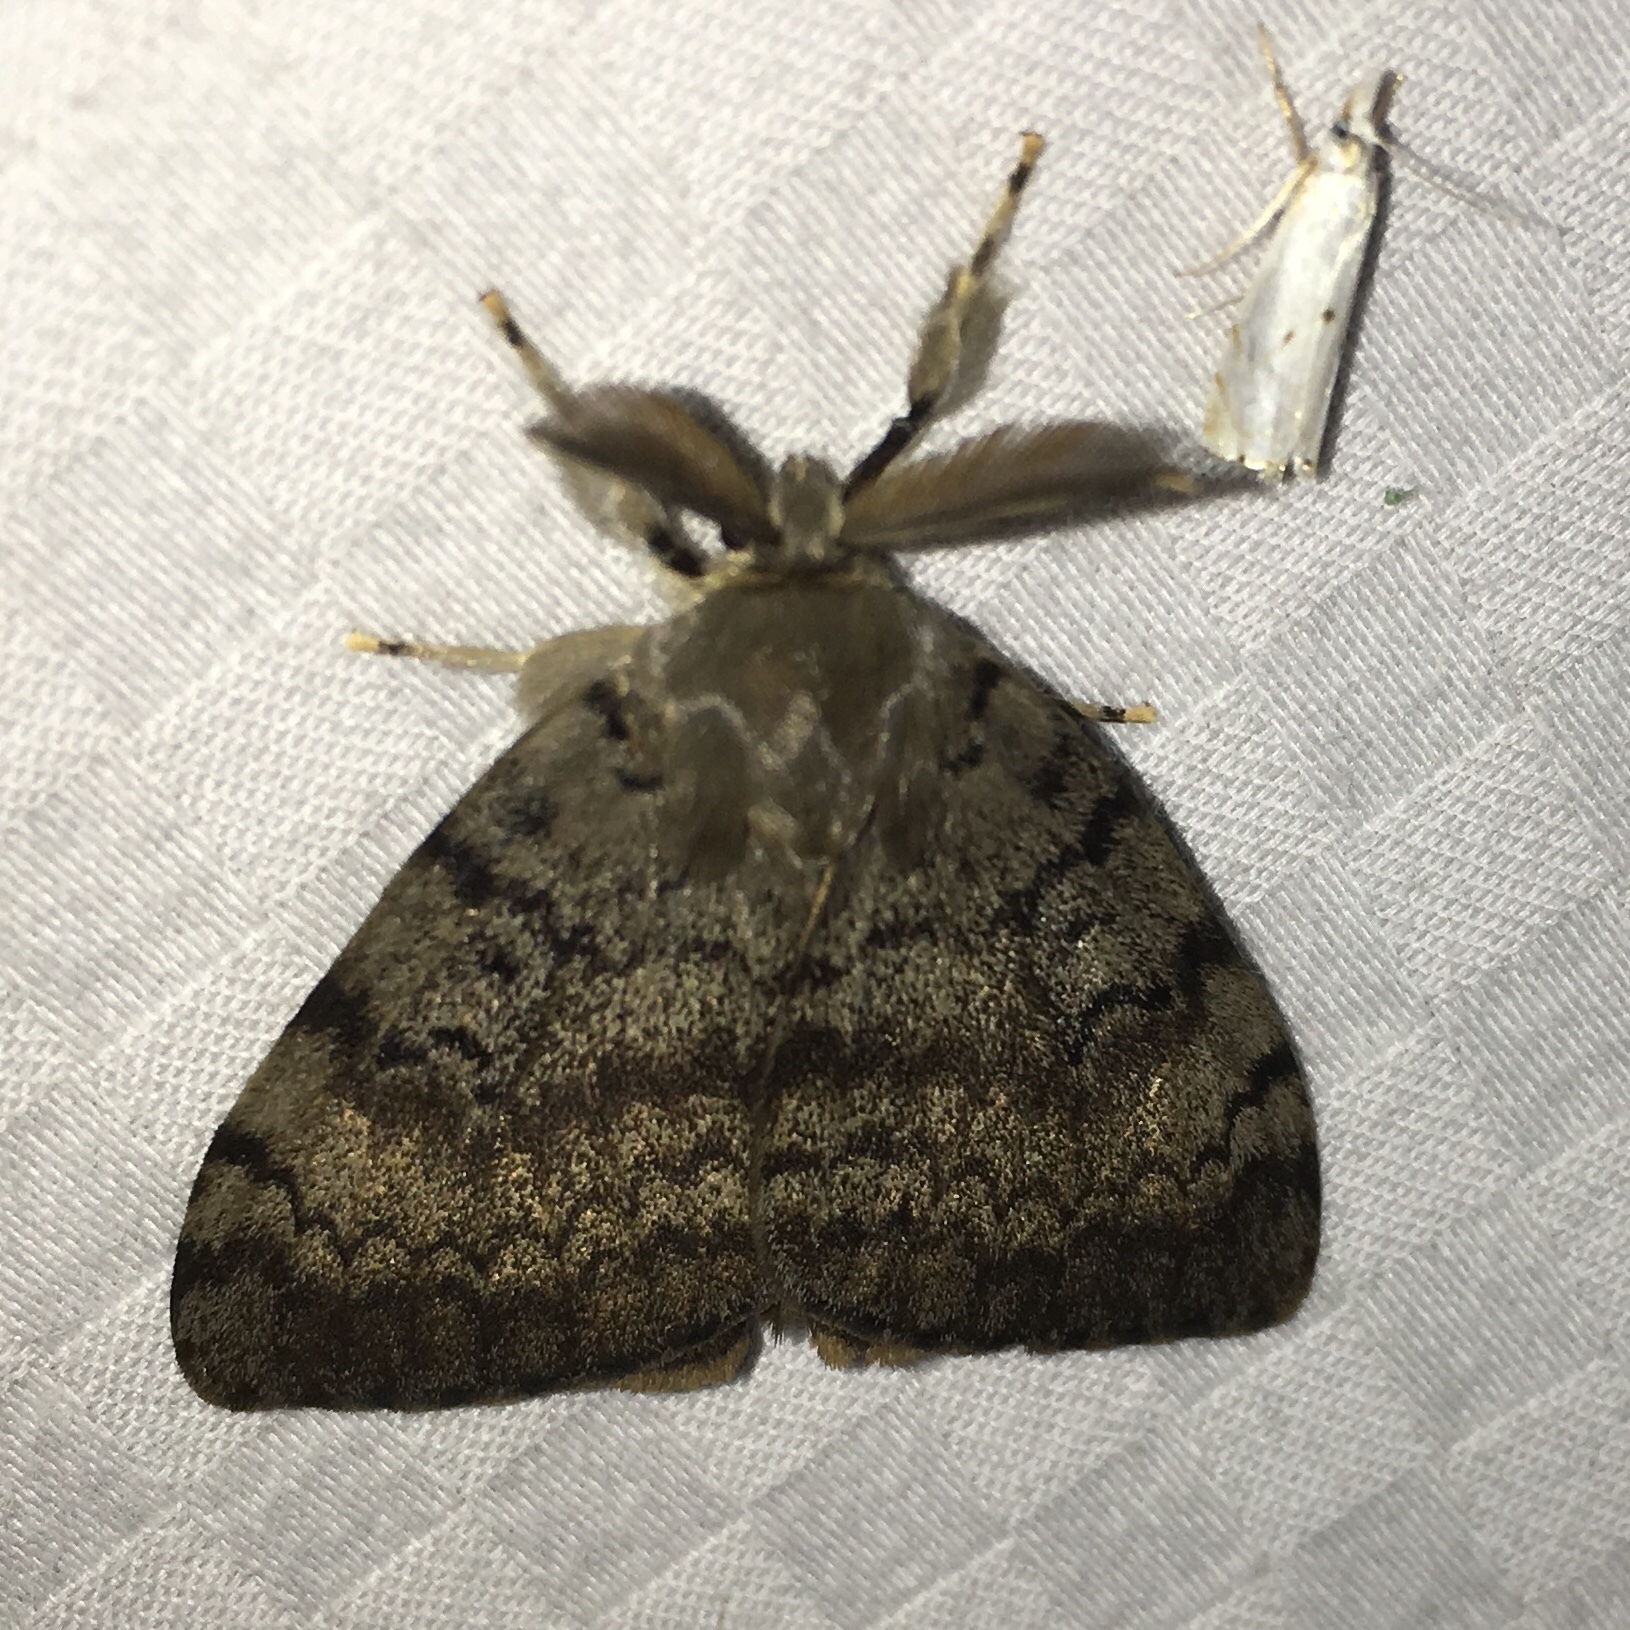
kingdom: Animalia
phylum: Arthropoda
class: Insecta
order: Lepidoptera
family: Erebidae
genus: Lymantria
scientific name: Lymantria dispar
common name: Gypsy moth
